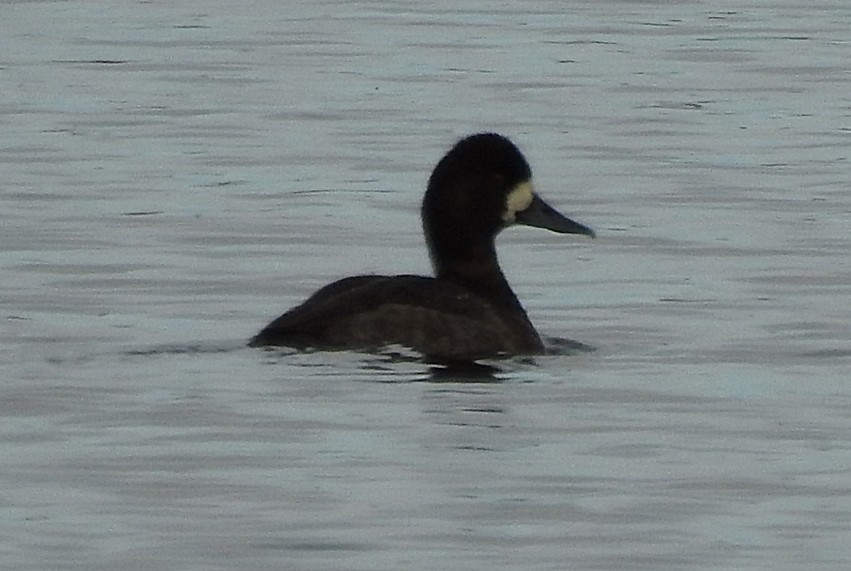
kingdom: Animalia
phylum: Chordata
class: Aves
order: Anseriformes
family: Anatidae
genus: Aythya
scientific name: Aythya affinis
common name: Lesser scaup
